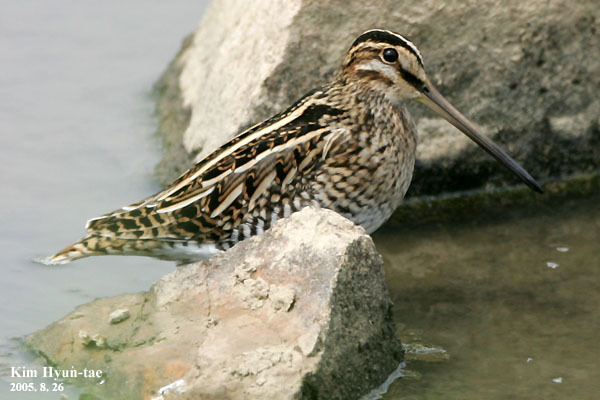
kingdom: Animalia
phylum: Chordata
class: Aves
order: Charadriiformes
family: Scolopacidae
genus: Gallinago
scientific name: Gallinago gallinago
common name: Common snipe
